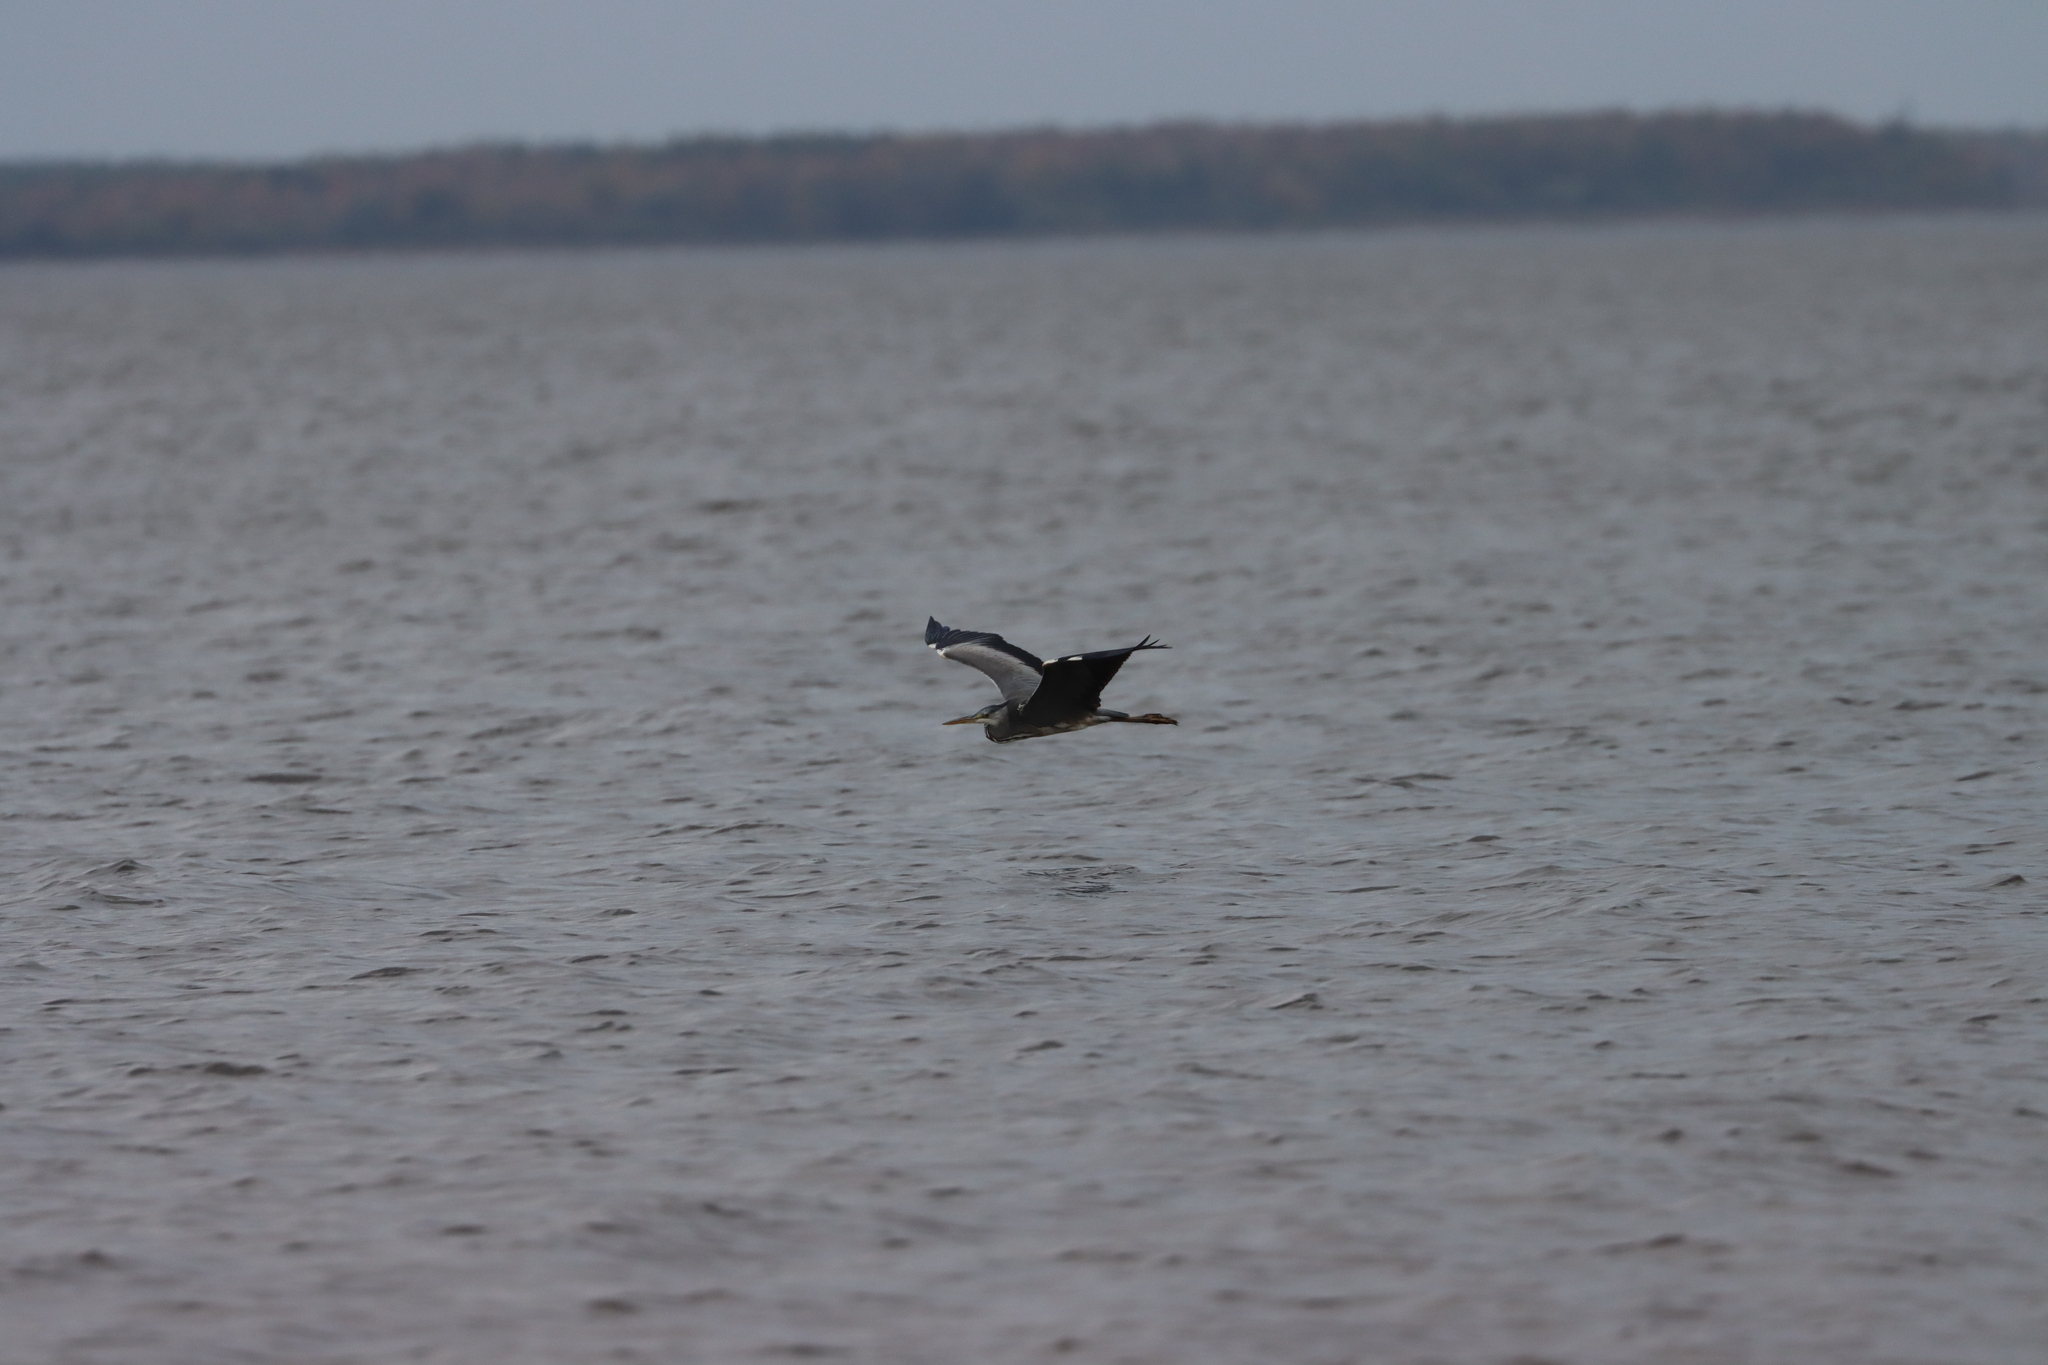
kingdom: Animalia
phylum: Chordata
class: Aves
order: Pelecaniformes
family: Ardeidae
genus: Ardea
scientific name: Ardea cinerea
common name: Grey heron
